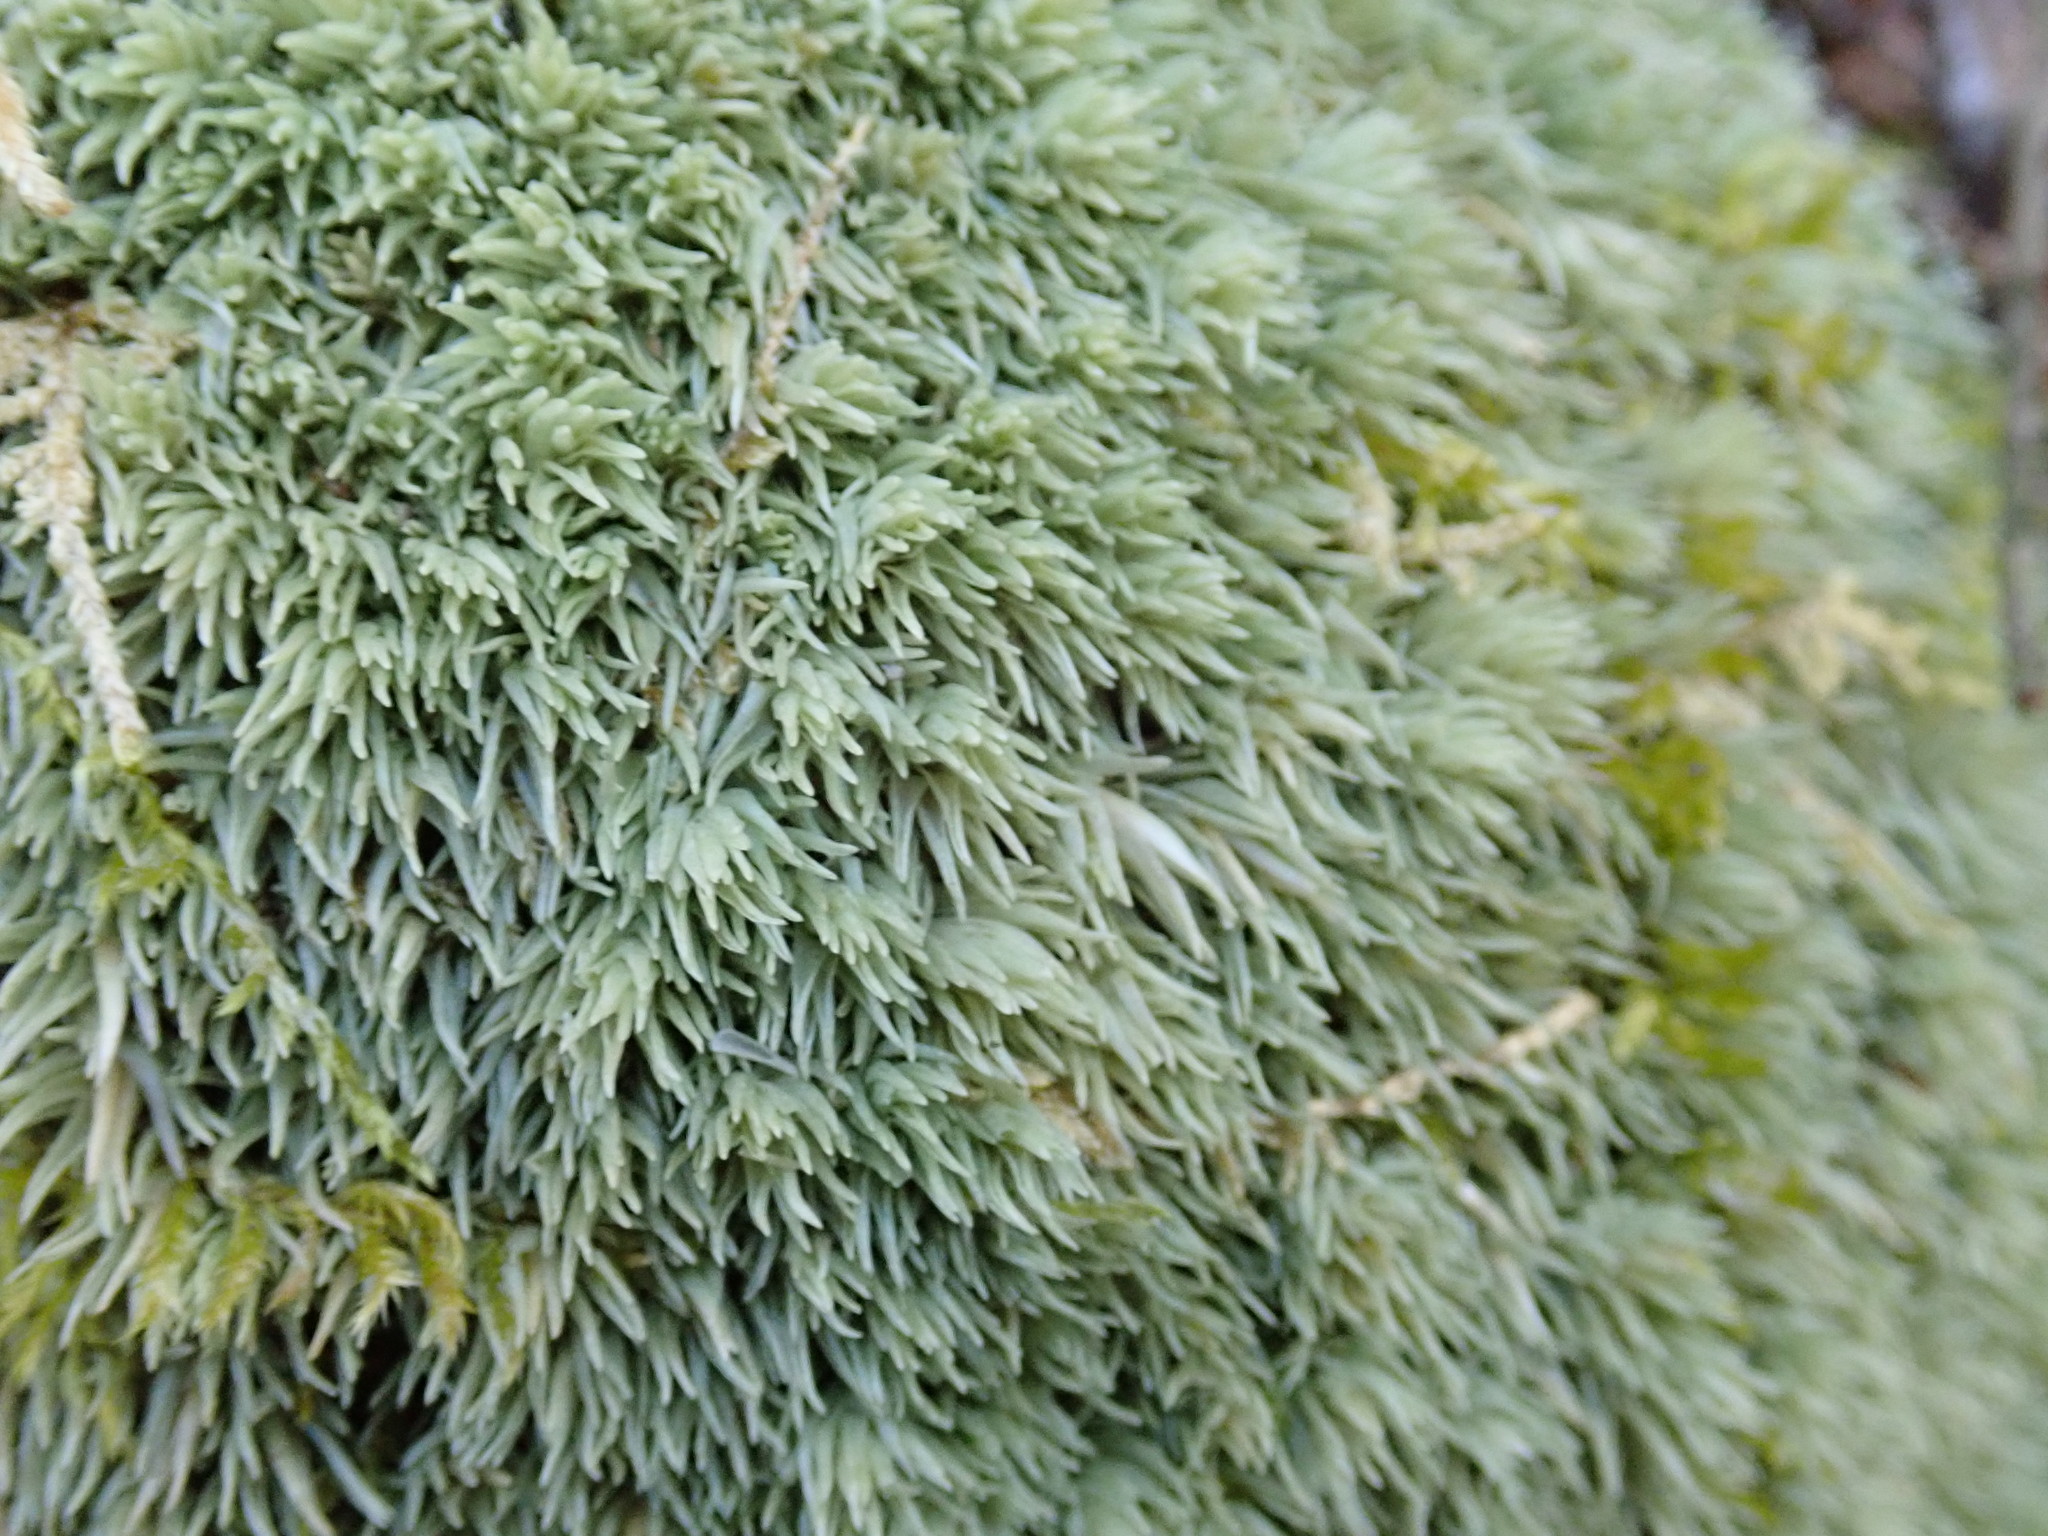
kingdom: Plantae
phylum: Bryophyta
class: Bryopsida
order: Dicranales
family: Leucobryaceae
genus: Leucobryum
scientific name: Leucobryum
